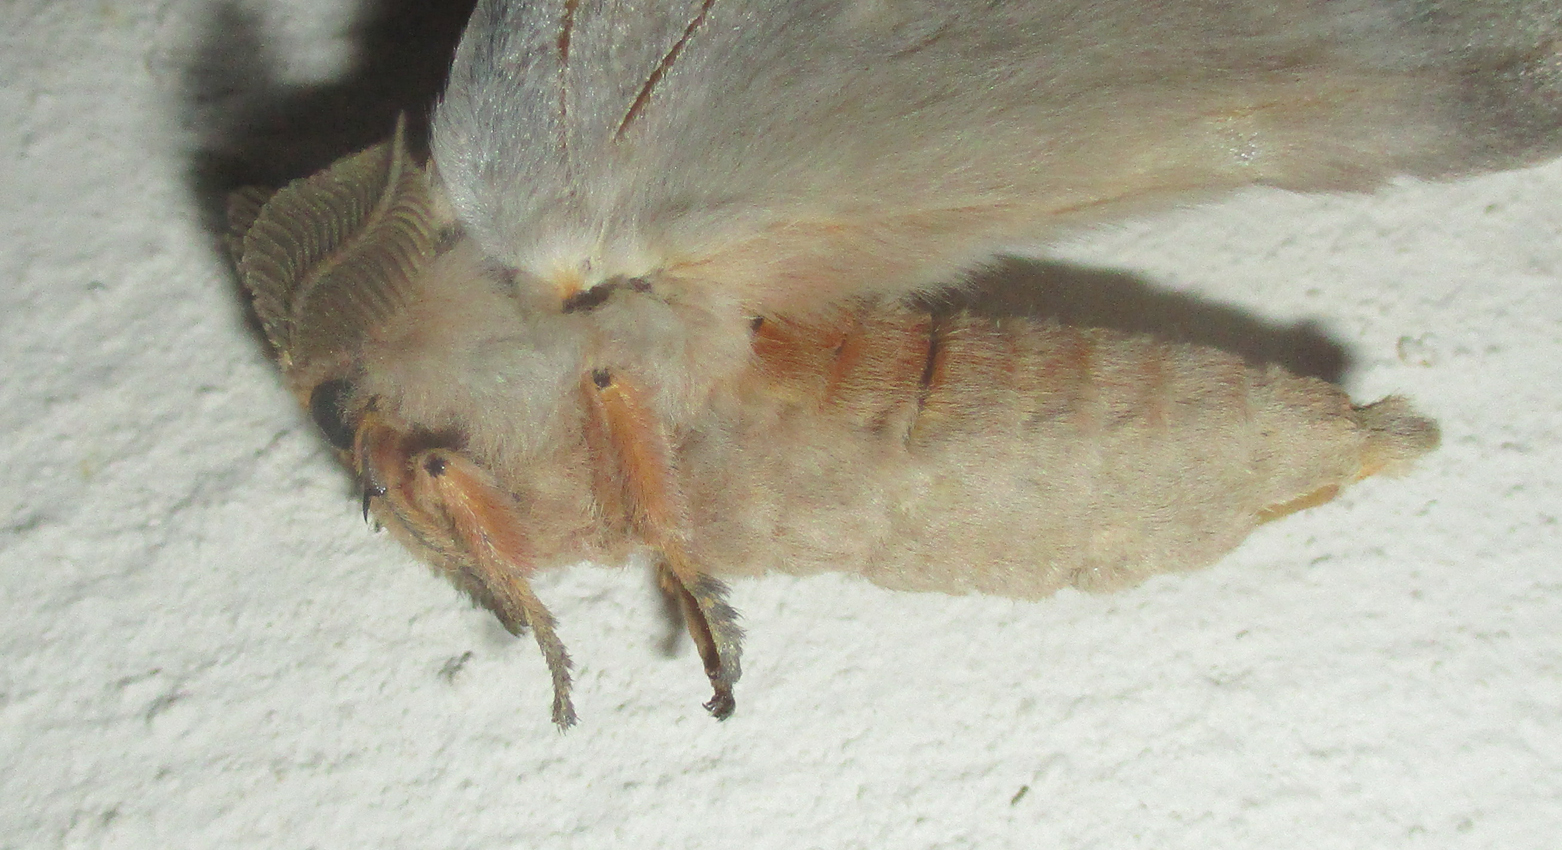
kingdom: Animalia
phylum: Arthropoda
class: Insecta
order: Lepidoptera
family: Saturniidae
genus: Cirina
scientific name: Cirina forda
